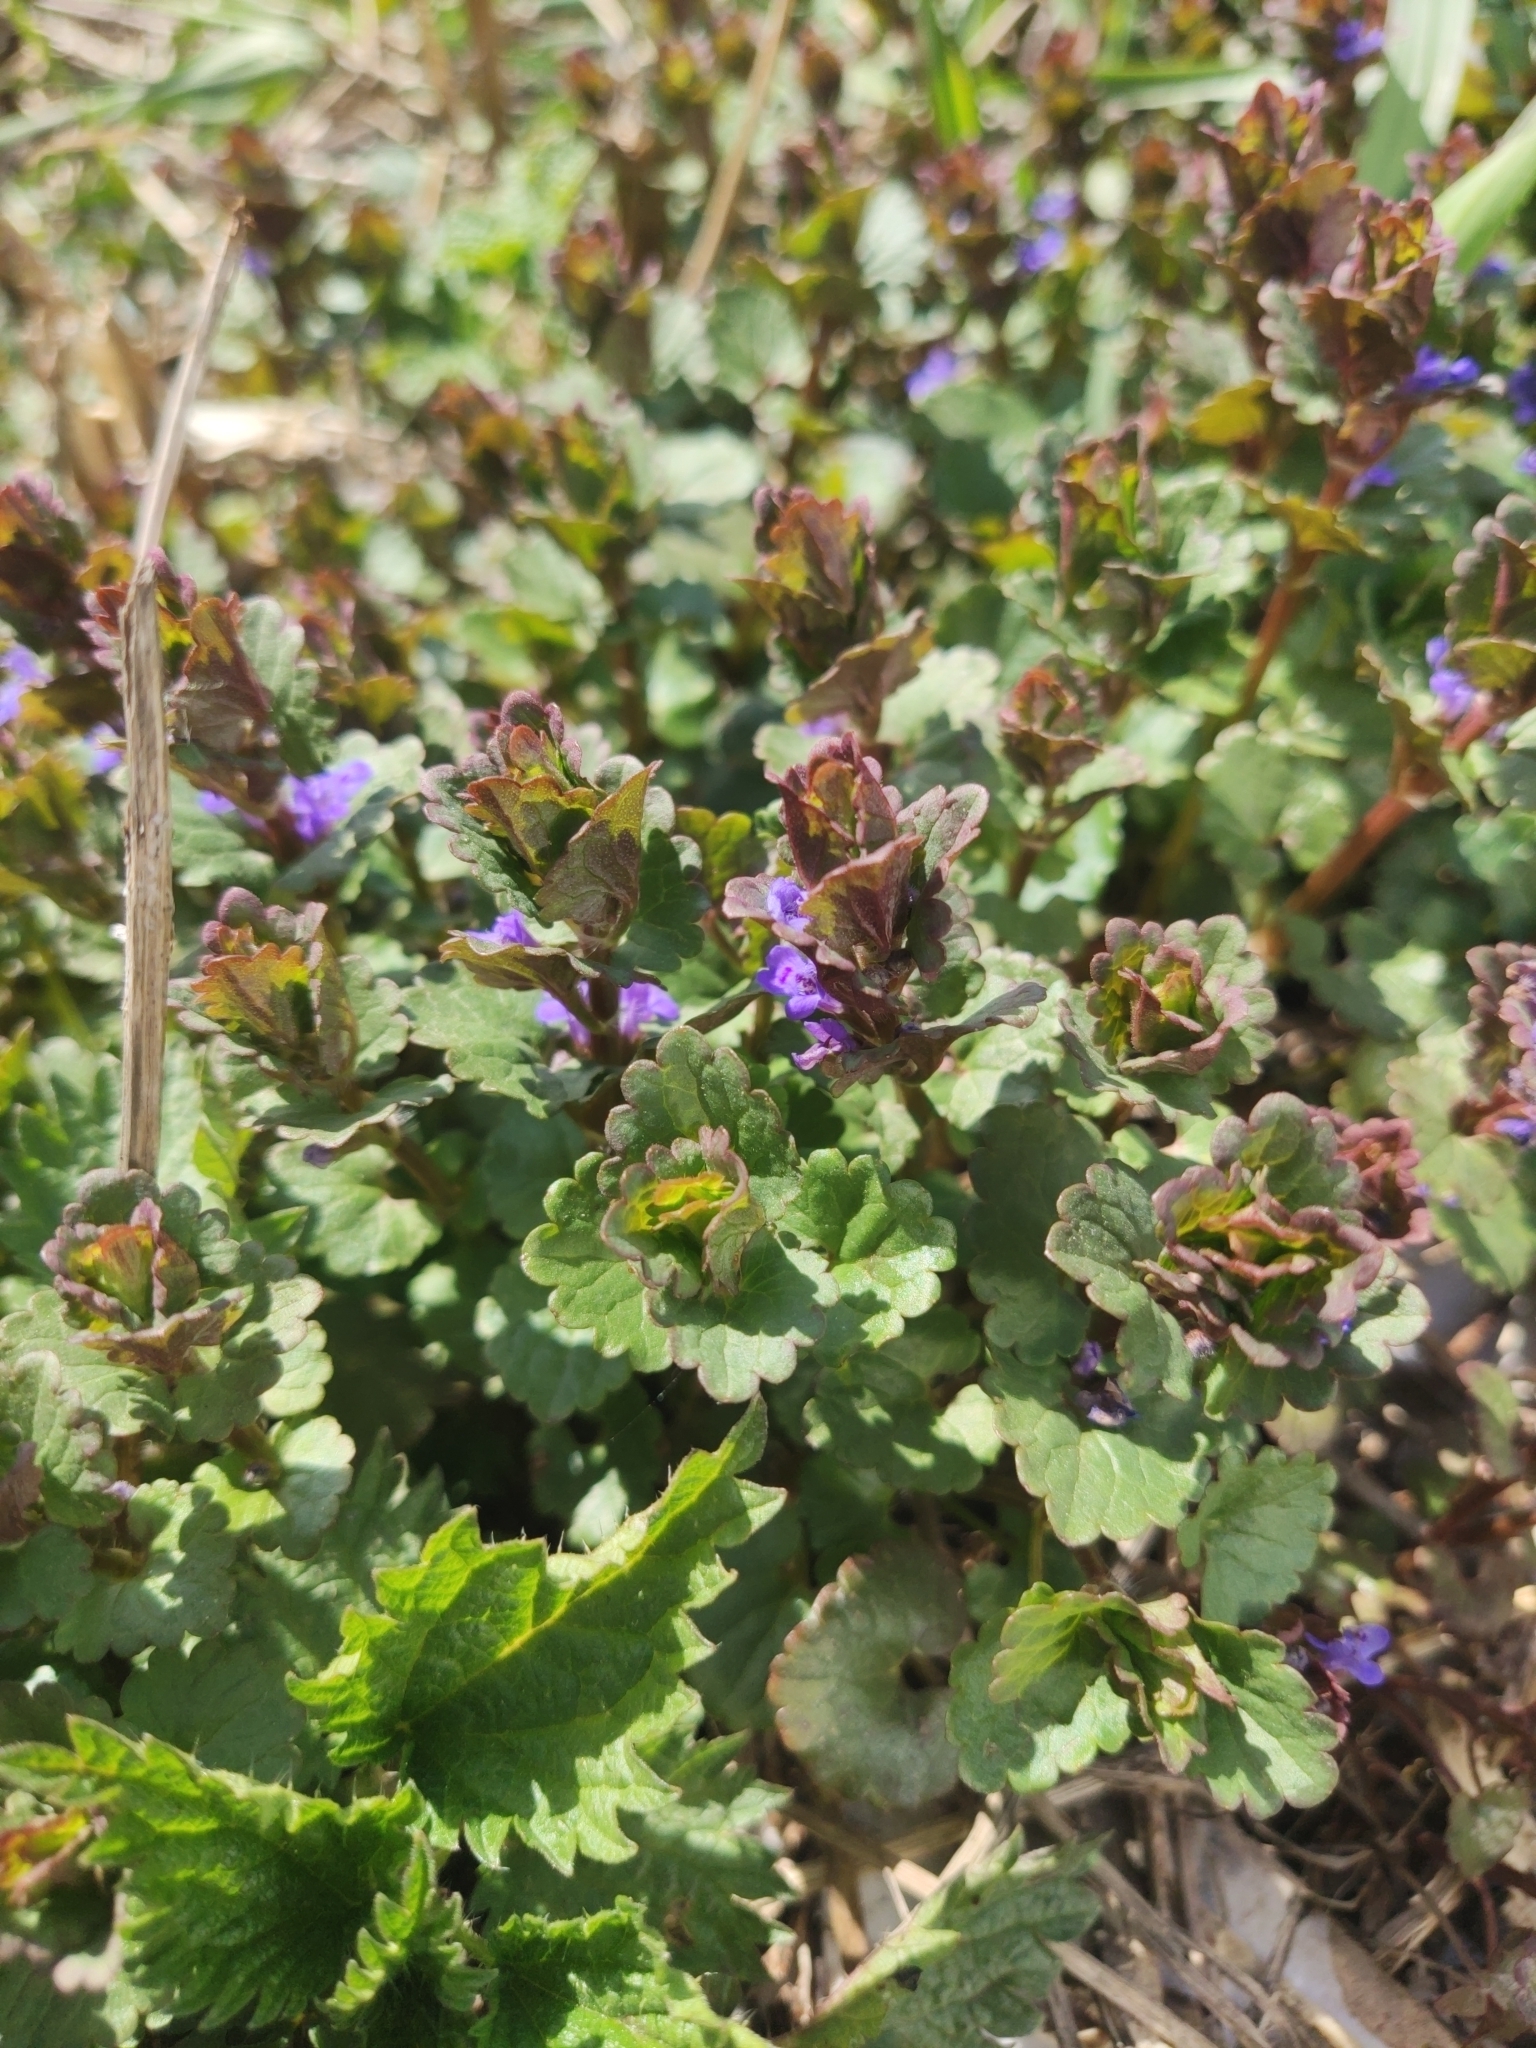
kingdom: Plantae
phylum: Tracheophyta
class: Magnoliopsida
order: Lamiales
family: Lamiaceae
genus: Glechoma
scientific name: Glechoma hederacea
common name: Ground ivy
